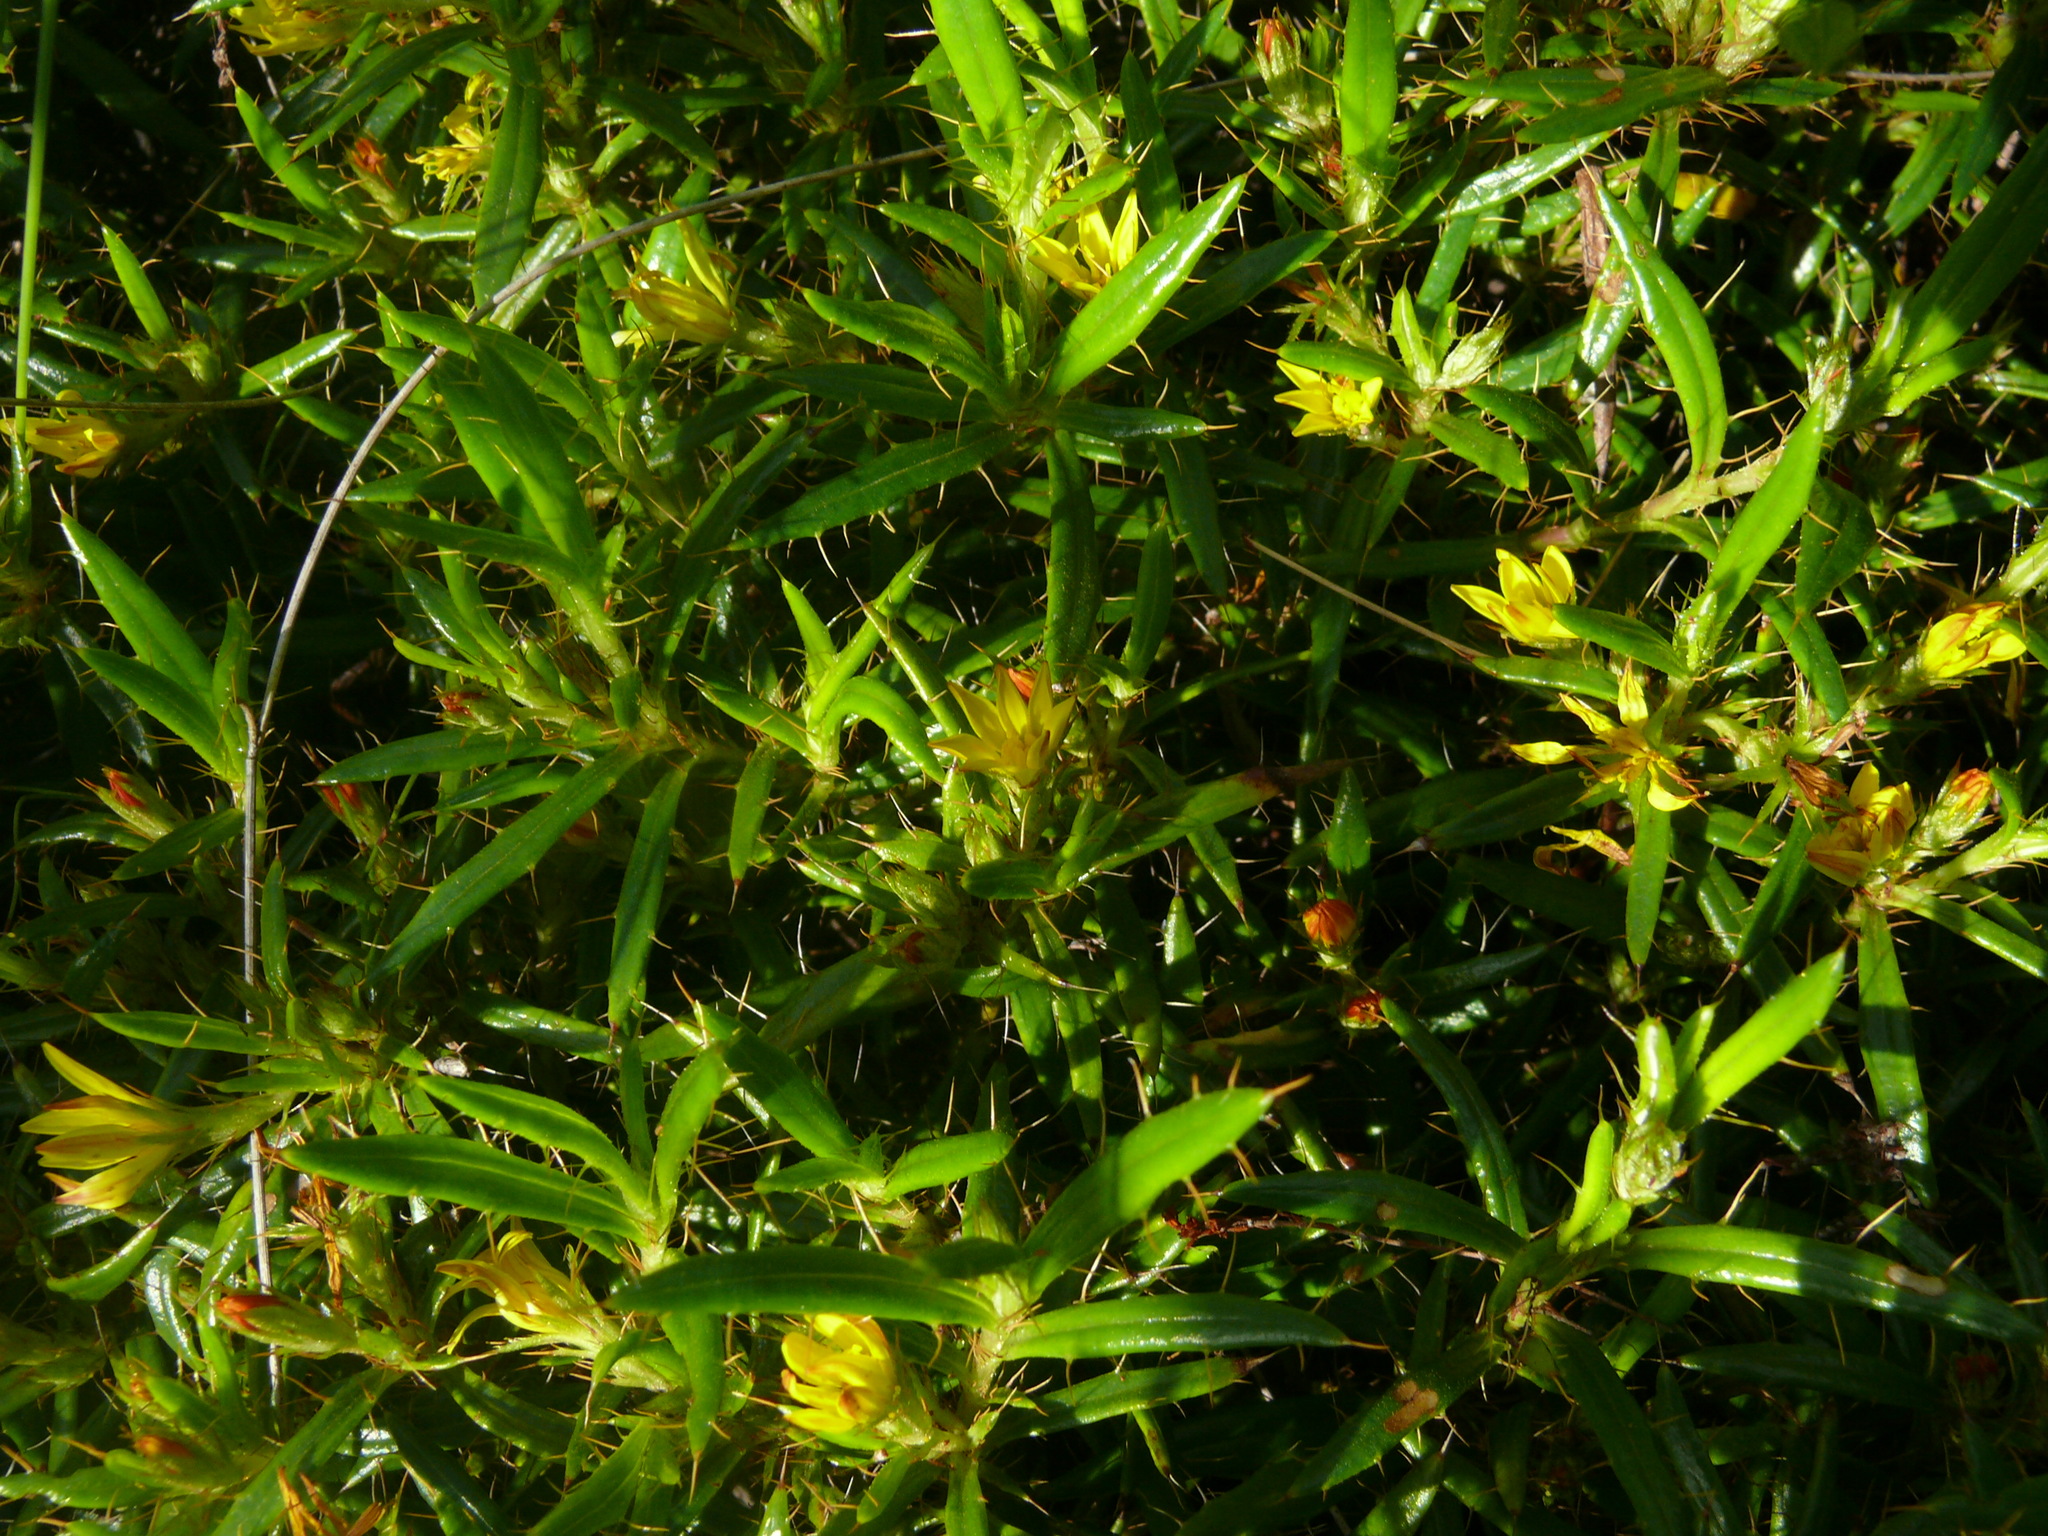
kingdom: Plantae
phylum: Tracheophyta
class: Magnoliopsida
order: Asterales
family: Asteraceae
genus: Cullumia
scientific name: Cullumia aculeata
